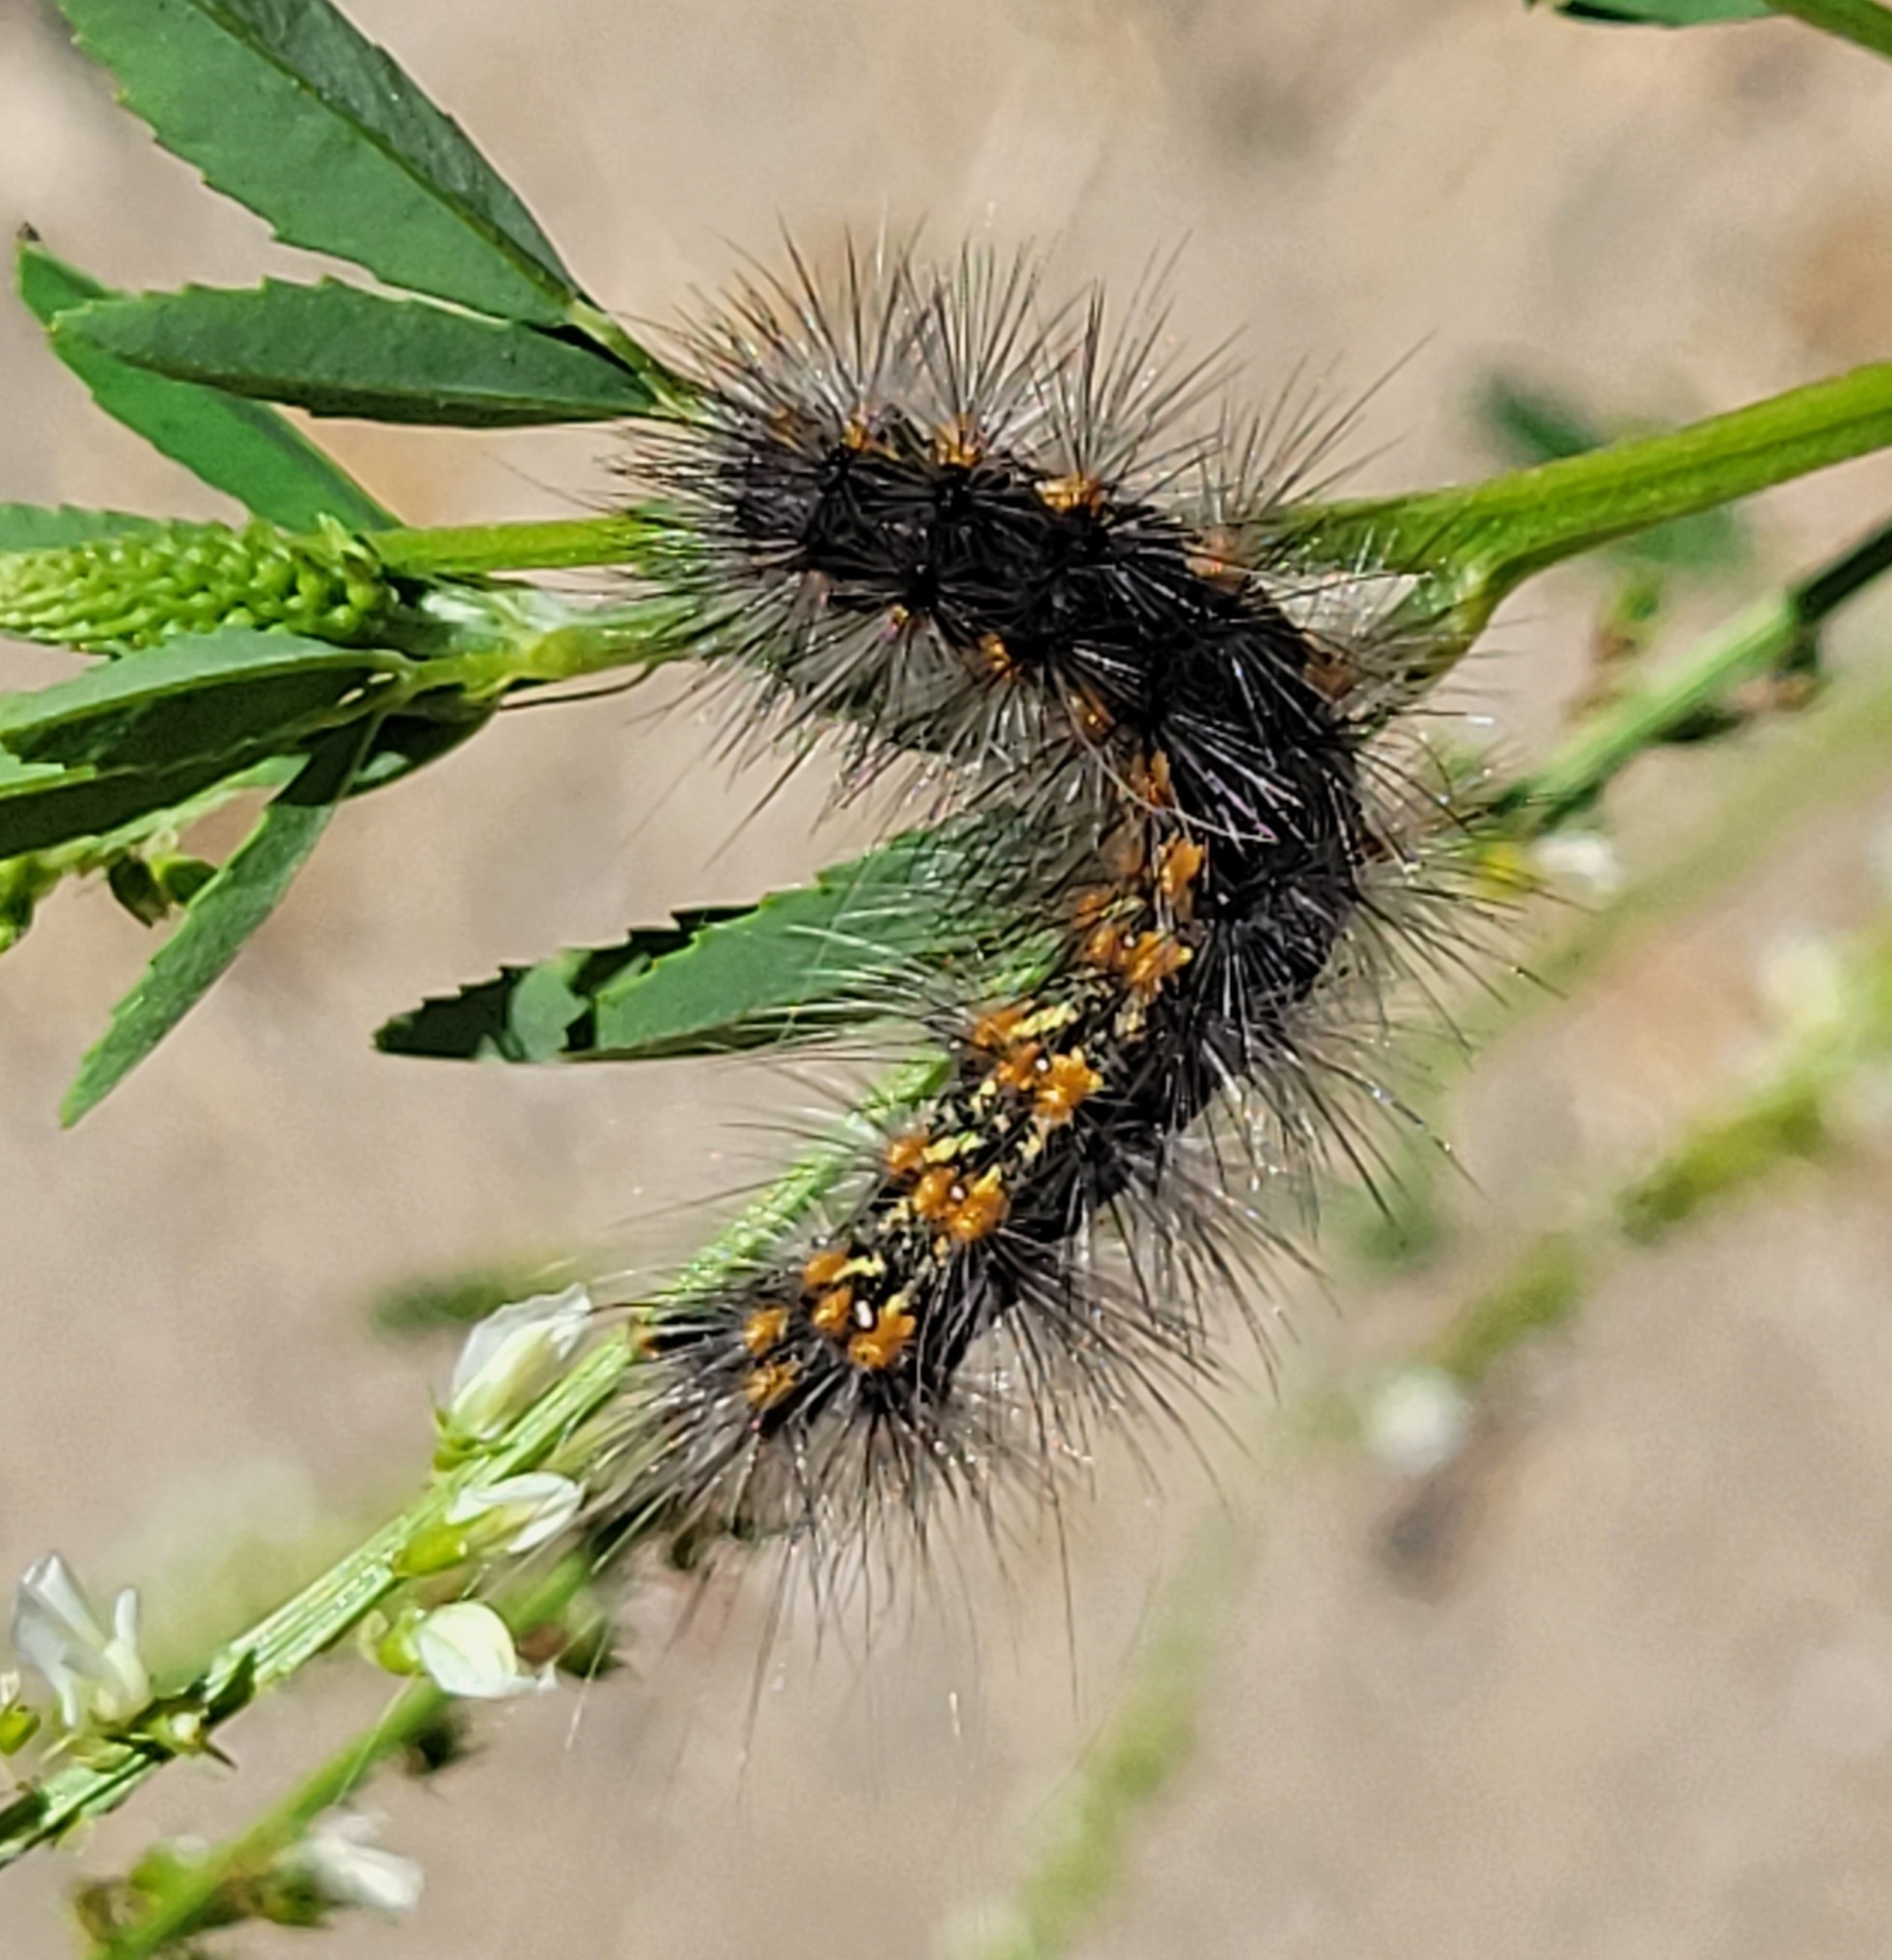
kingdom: Animalia
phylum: Arthropoda
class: Insecta
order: Lepidoptera
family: Erebidae
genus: Estigmene
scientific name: Estigmene acrea
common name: Salt marsh moth
